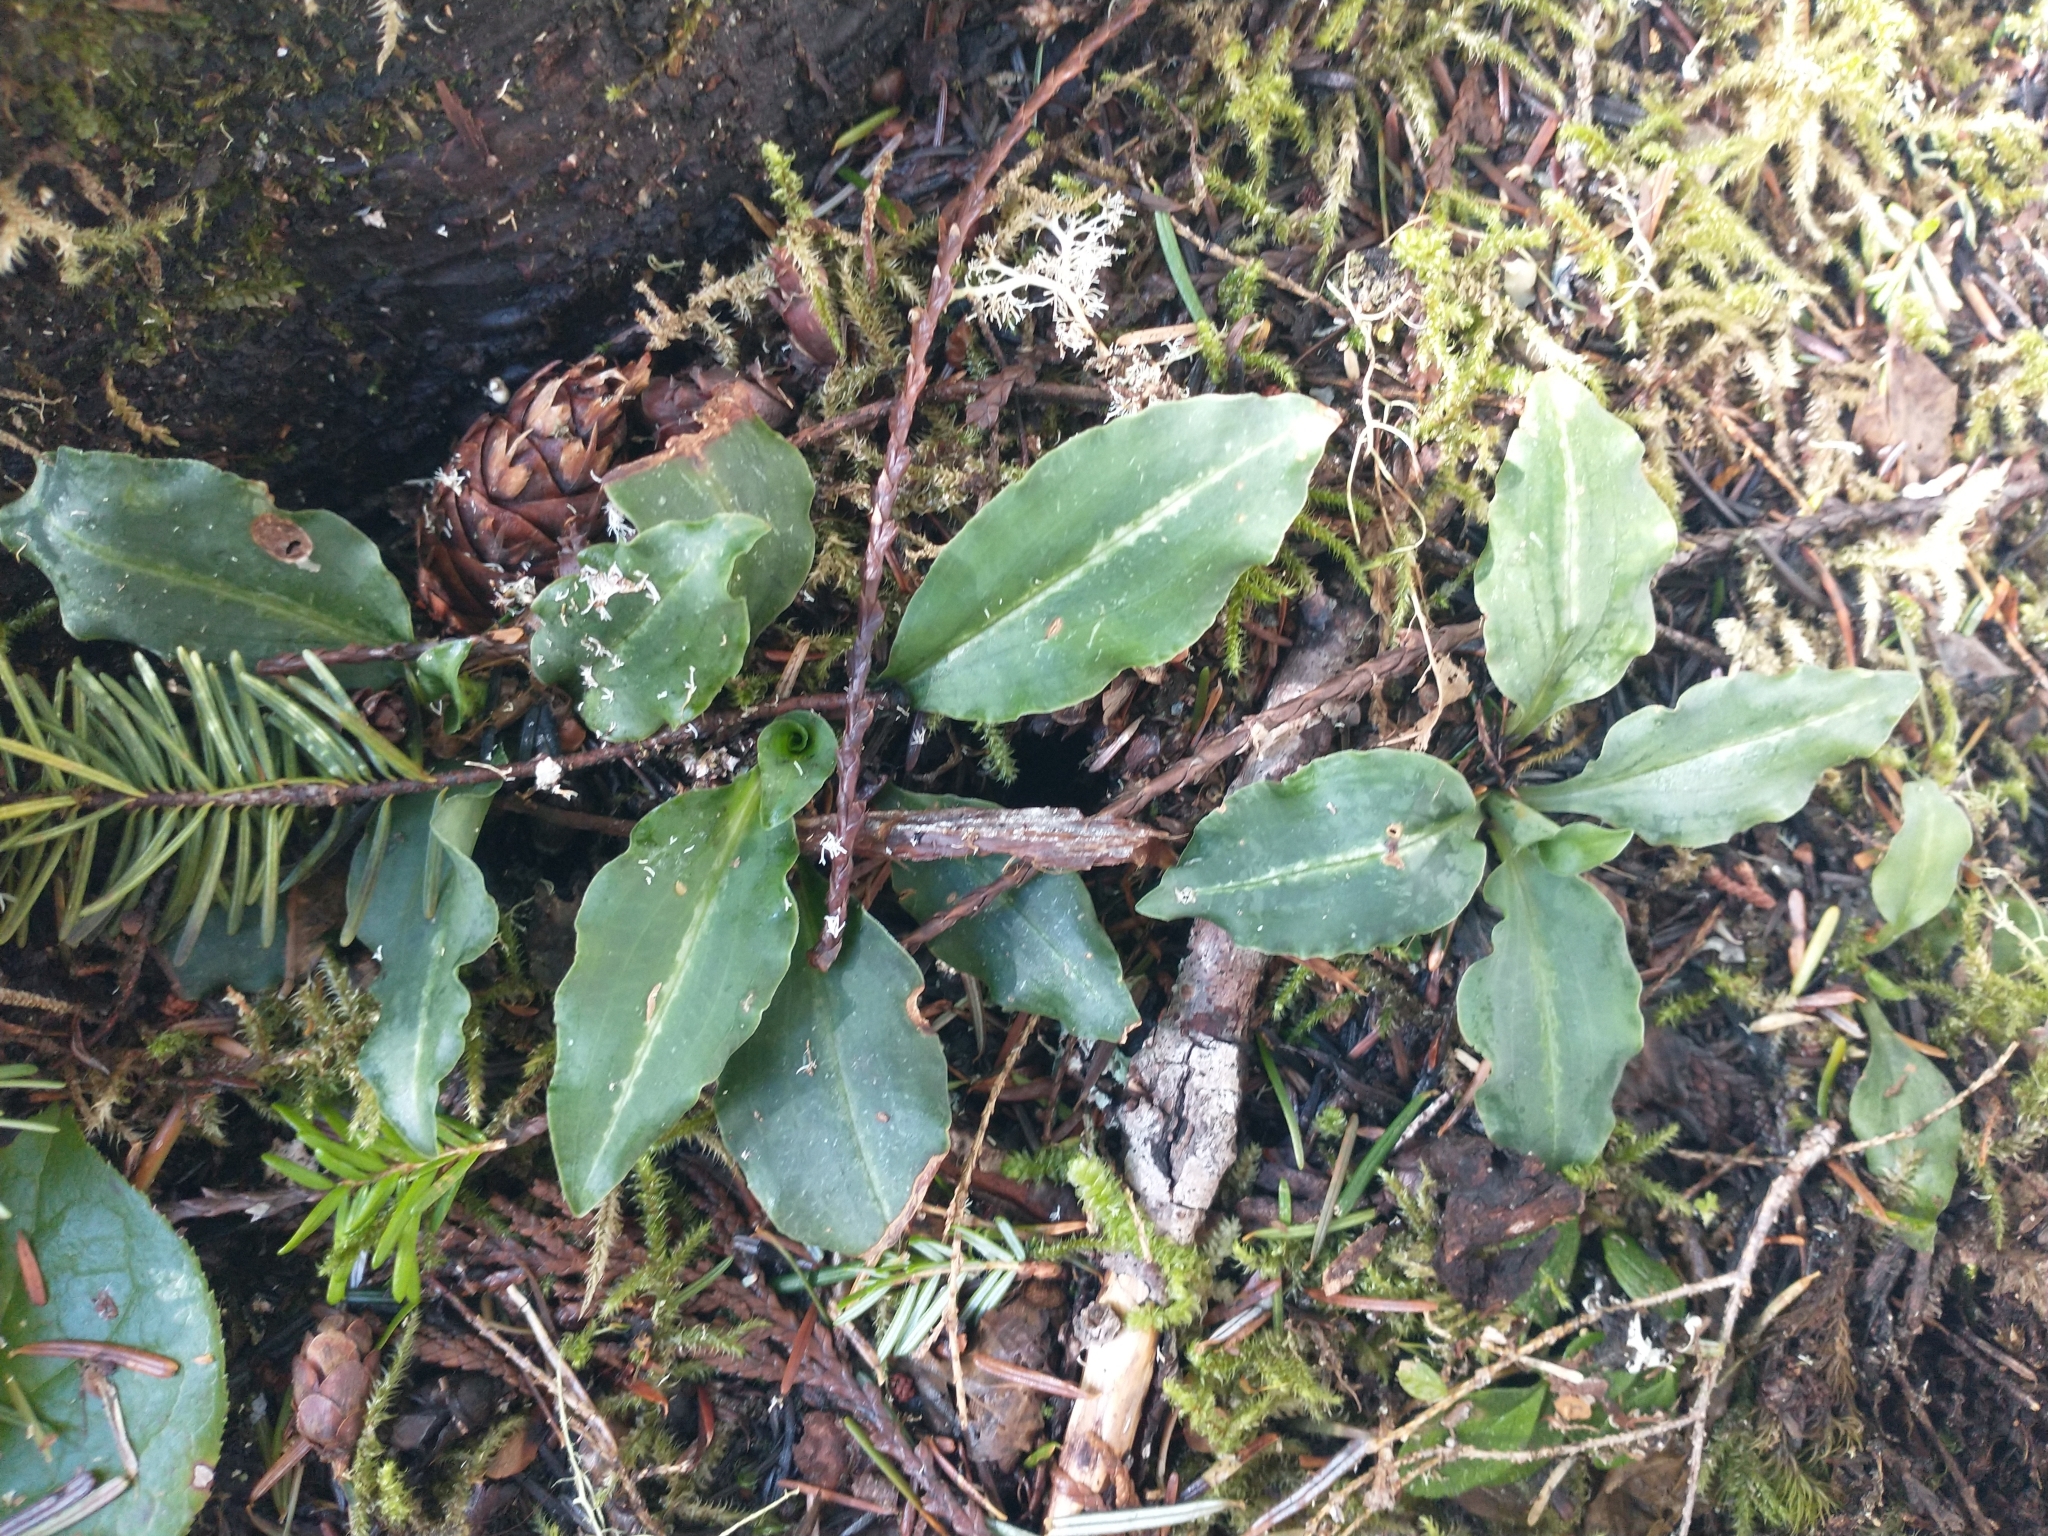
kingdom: Plantae
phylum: Tracheophyta
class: Liliopsida
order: Asparagales
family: Orchidaceae
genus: Goodyera
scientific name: Goodyera oblongifolia
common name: Giant rattlesnake-plantain
